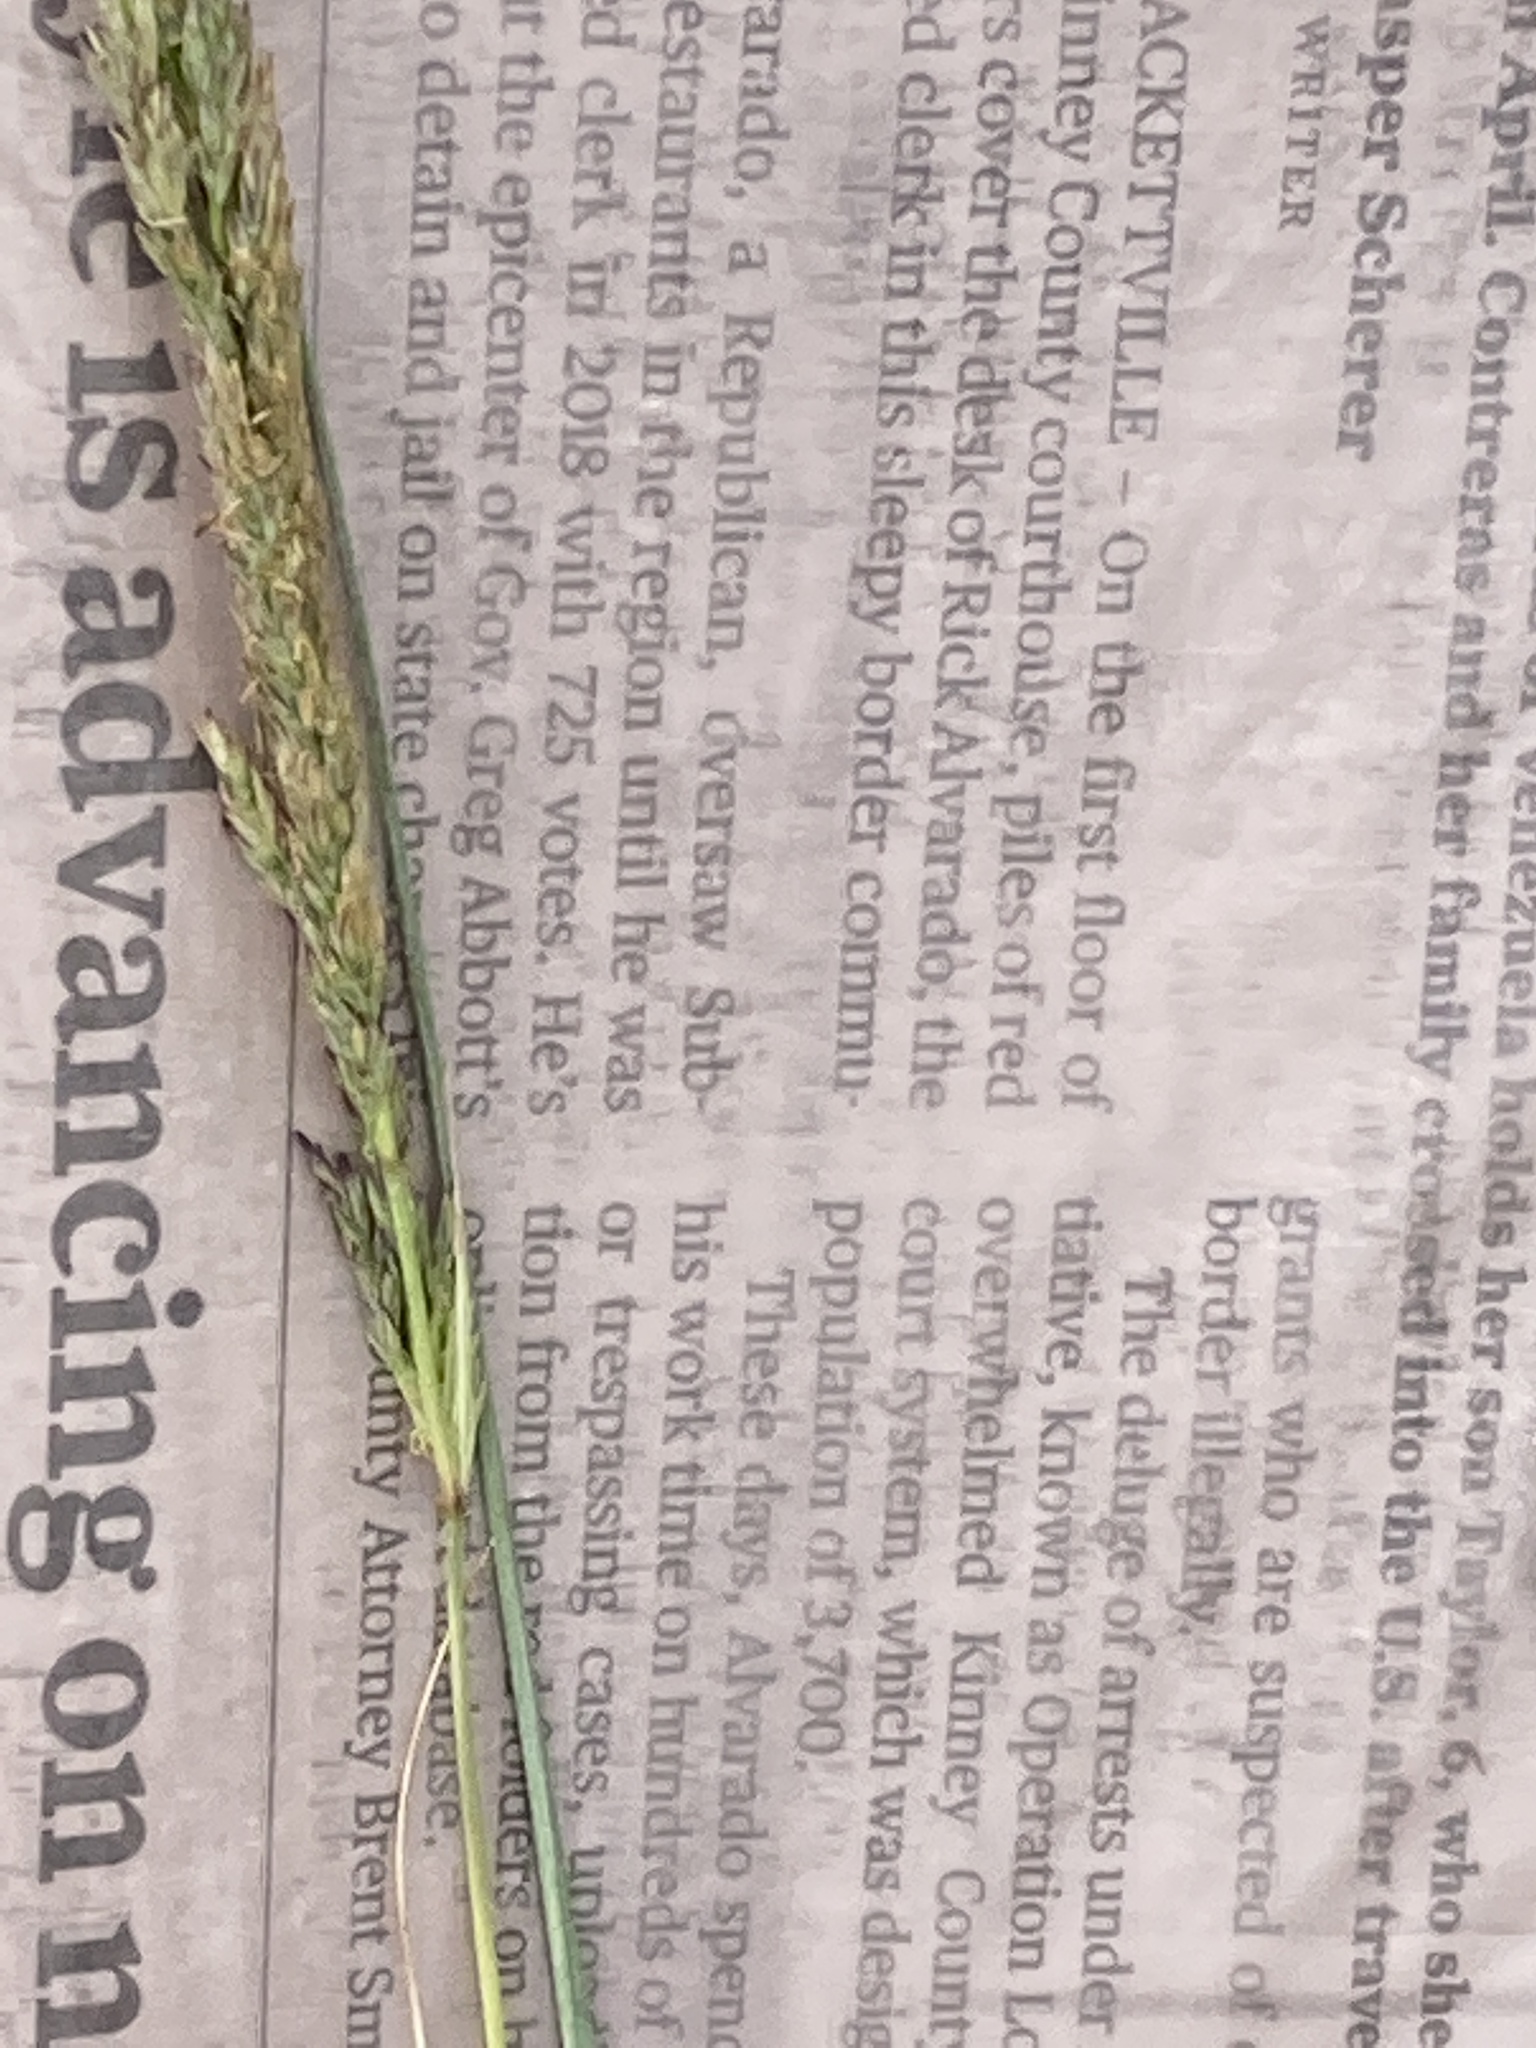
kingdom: Plantae
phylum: Tracheophyta
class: Liliopsida
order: Poales
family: Poaceae
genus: Sporobolus
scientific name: Sporobolus compositus
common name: Rough dropseed
